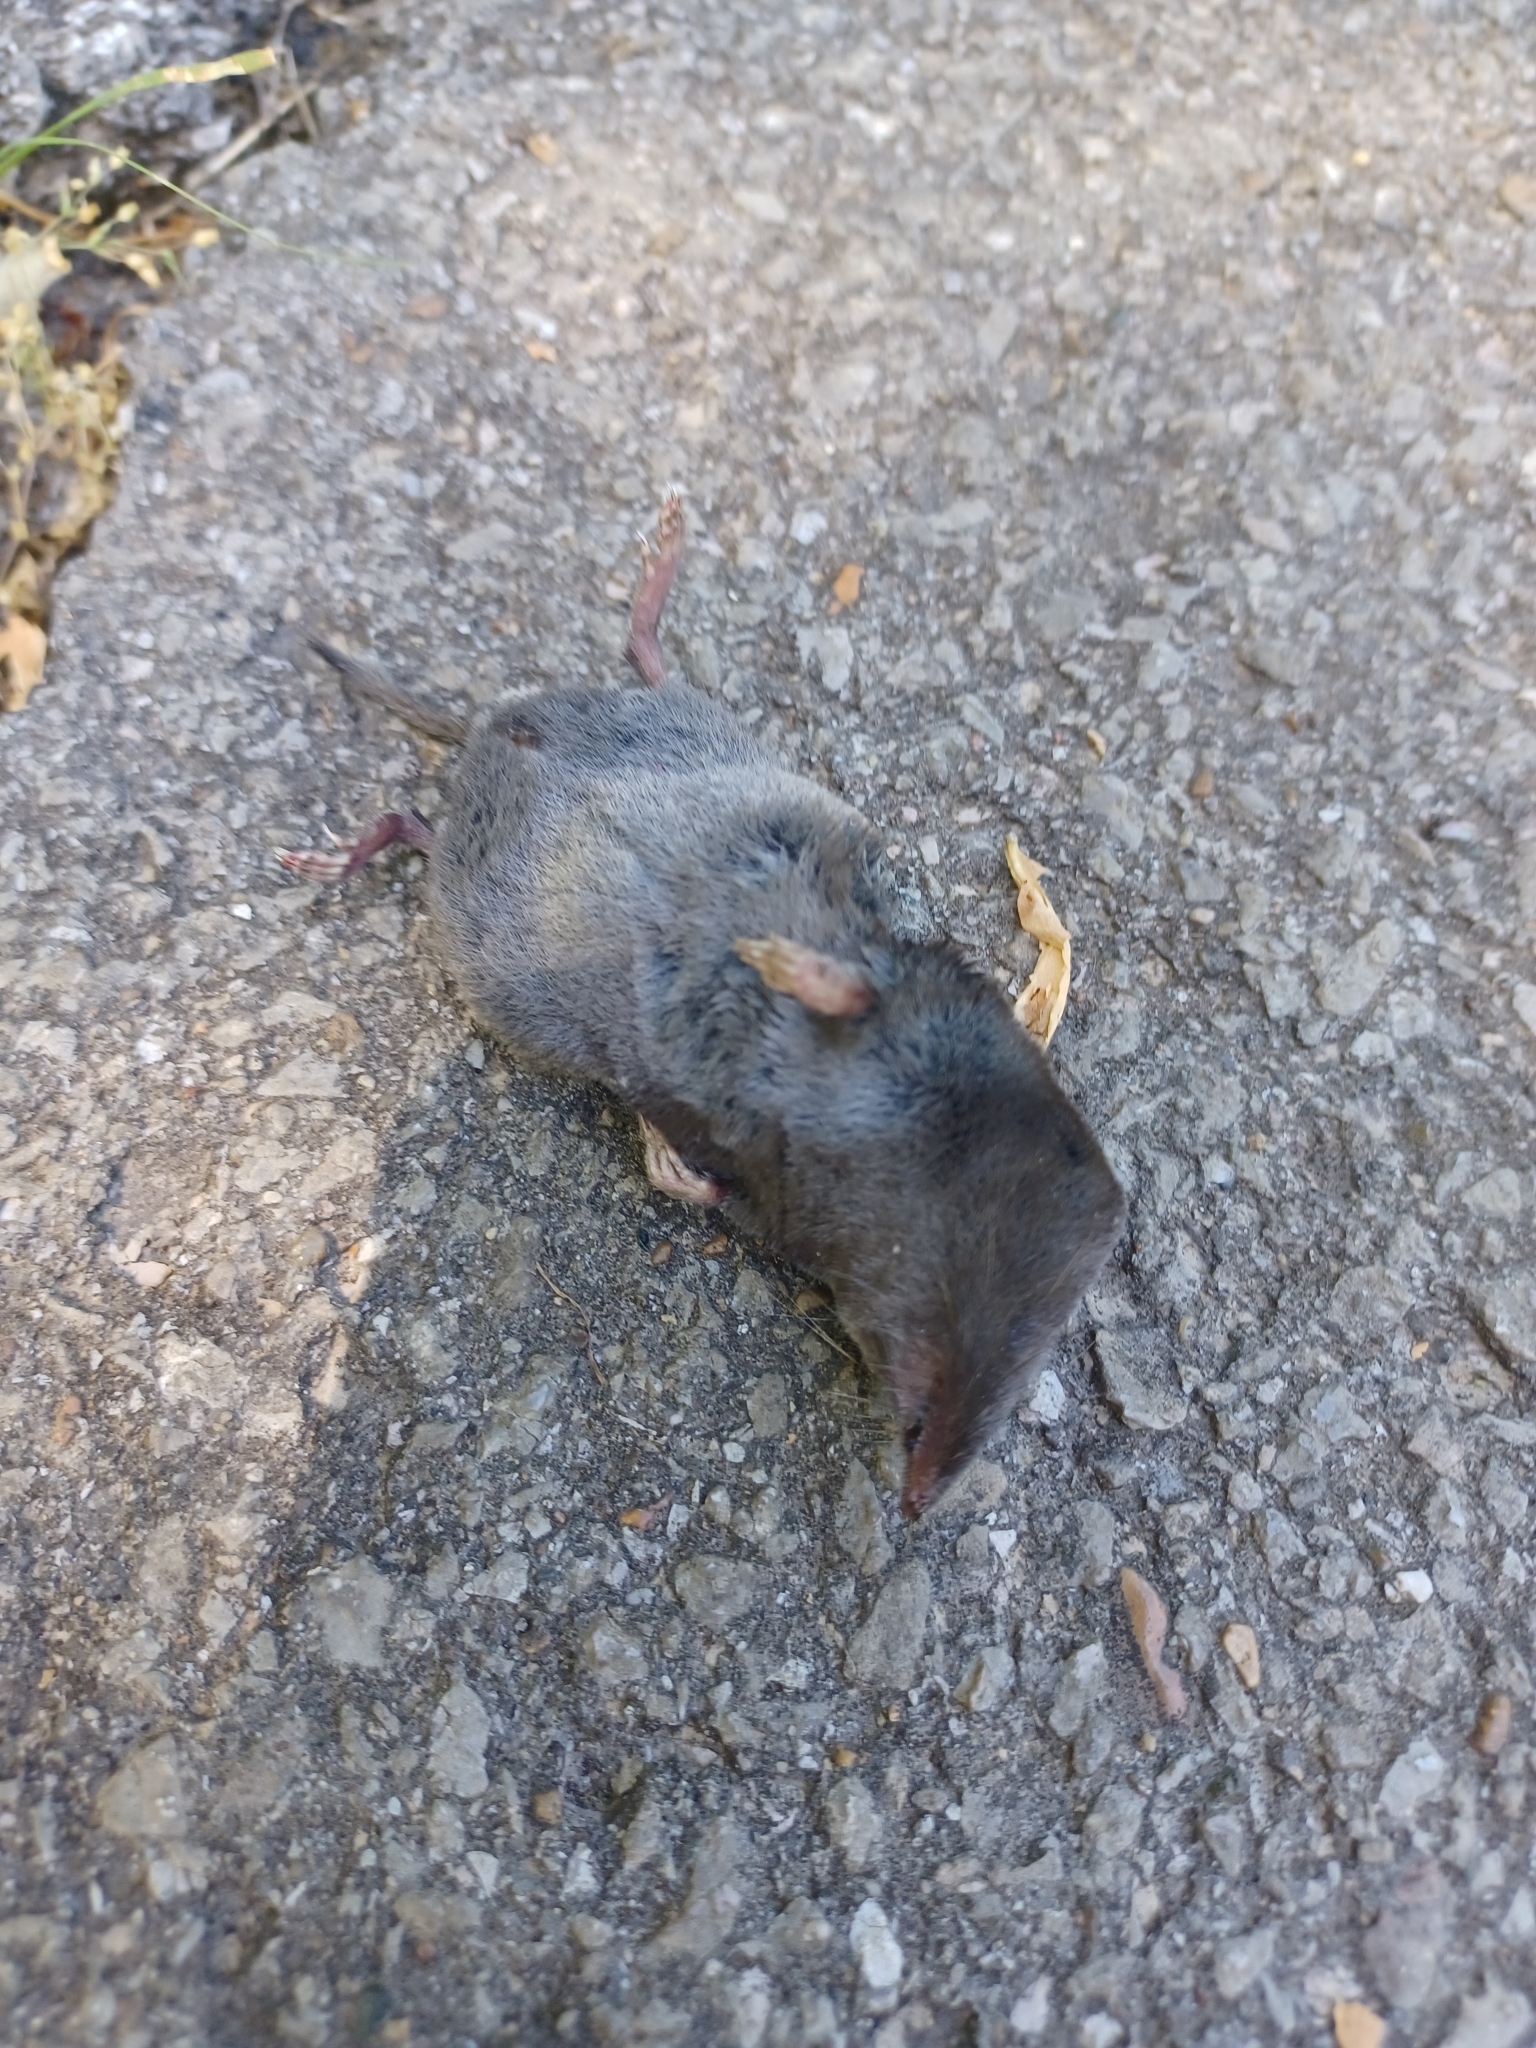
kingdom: Animalia
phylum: Chordata
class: Mammalia
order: Soricomorpha
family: Soricidae
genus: Blarina
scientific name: Blarina brevicauda
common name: Northern short-tailed shrew
